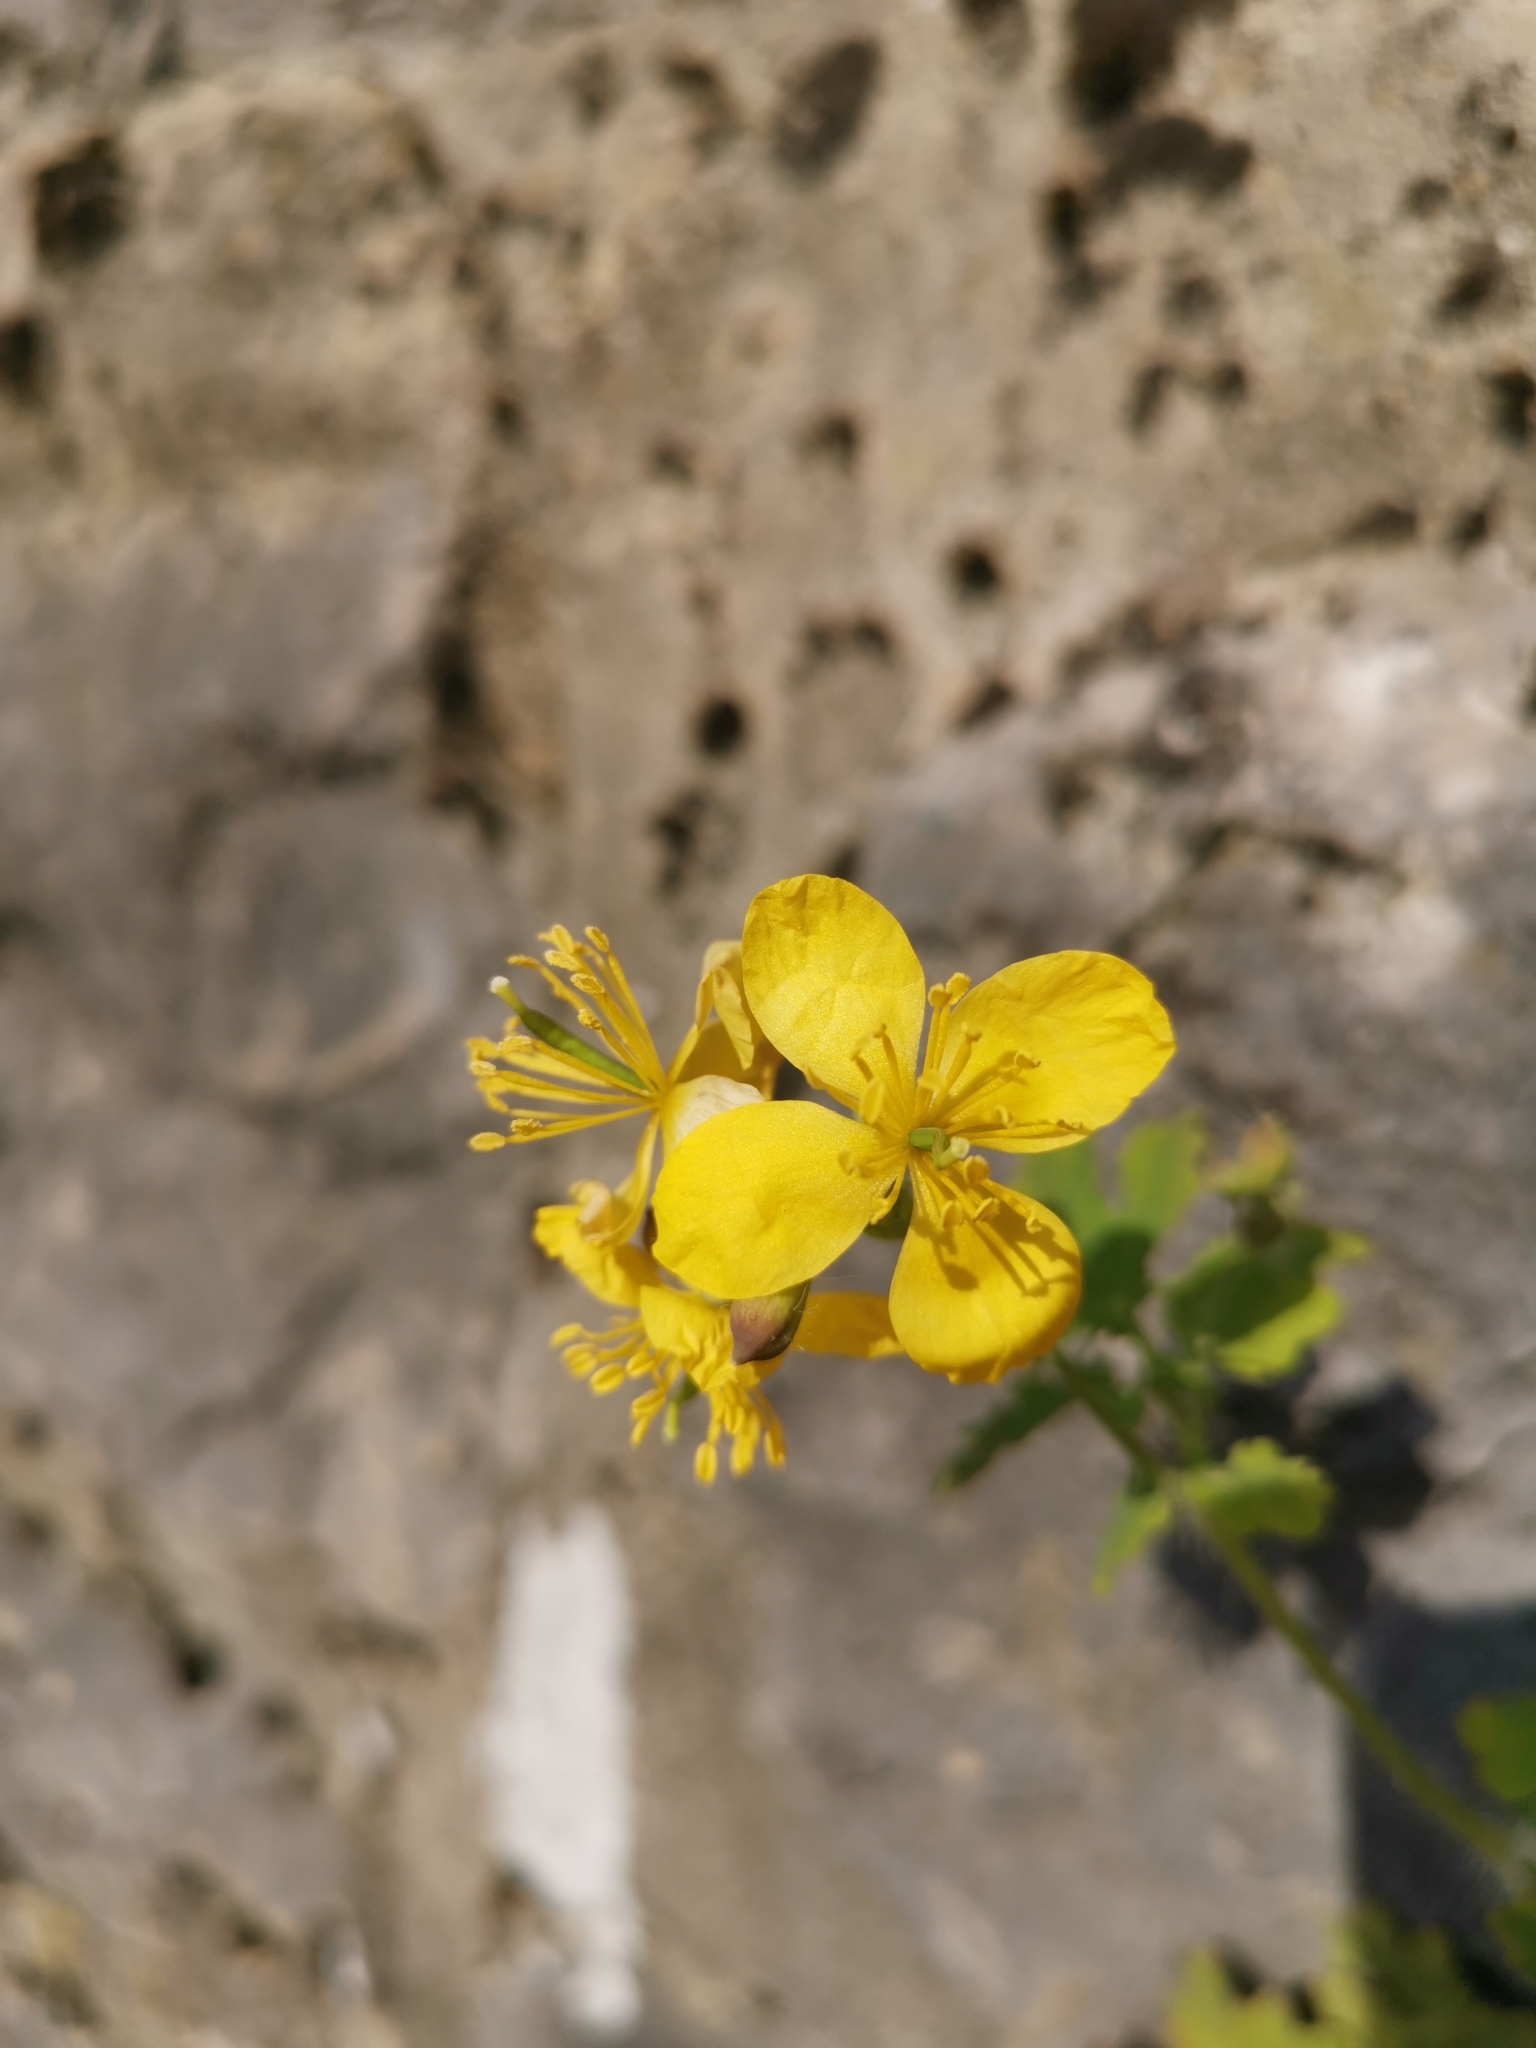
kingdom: Plantae
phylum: Tracheophyta
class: Magnoliopsida
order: Ranunculales
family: Papaveraceae
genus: Chelidonium
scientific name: Chelidonium majus
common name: Greater celandine
